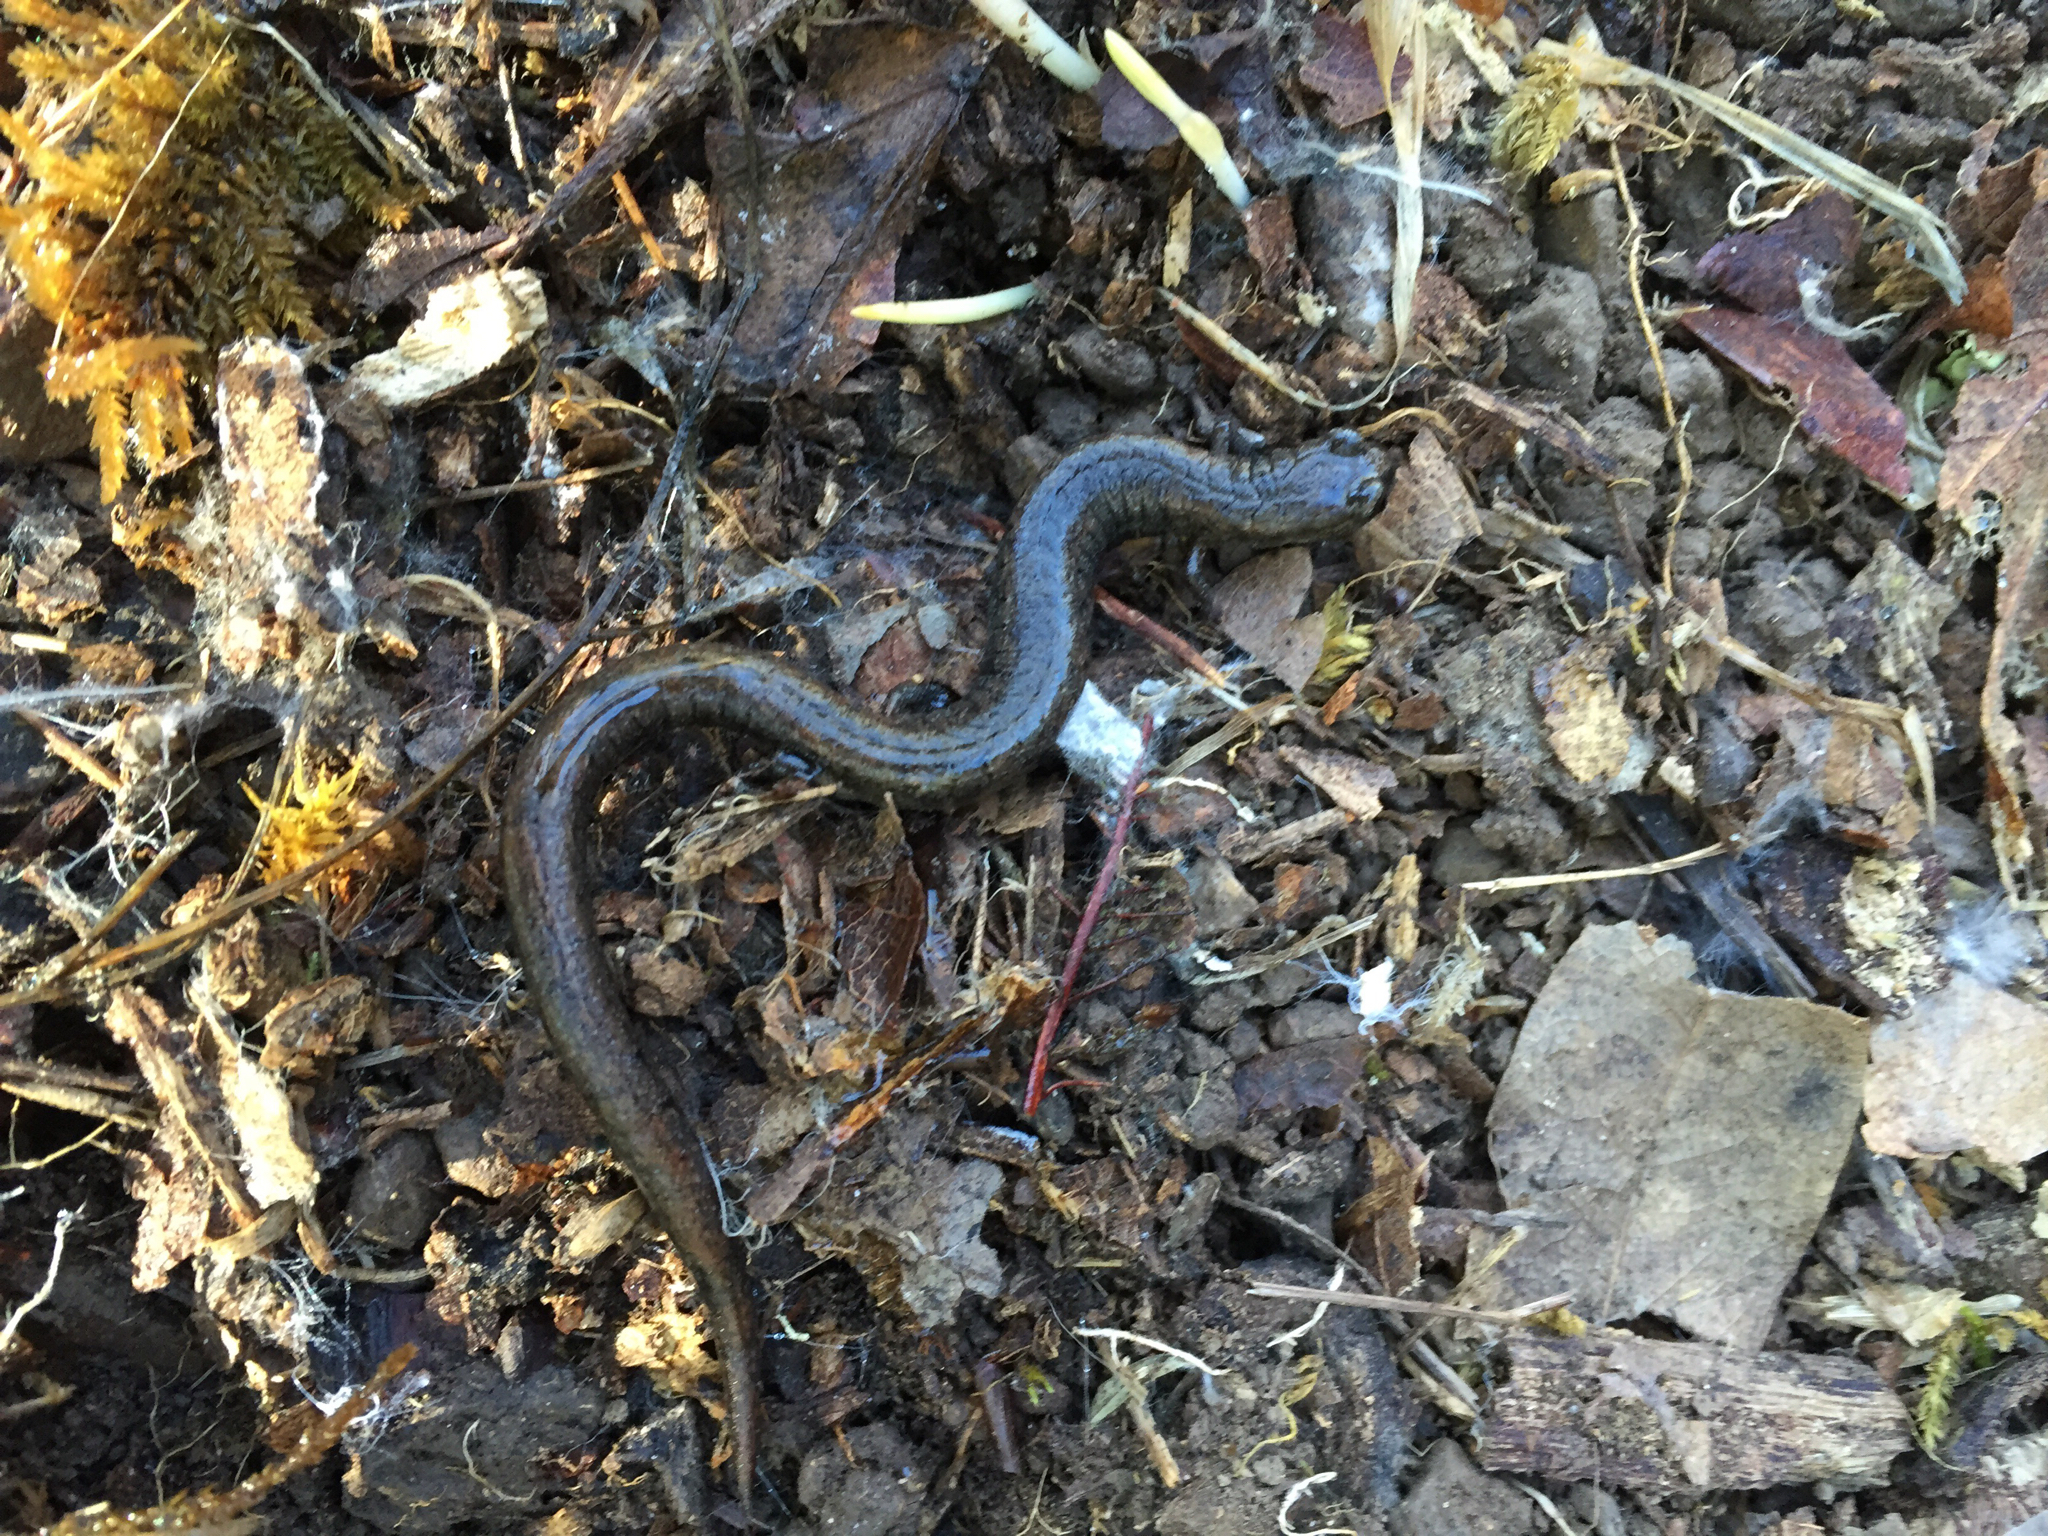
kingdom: Animalia
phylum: Chordata
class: Amphibia
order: Caudata
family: Plethodontidae
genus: Batrachoseps
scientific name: Batrachoseps attenuatus
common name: California slender salamander
